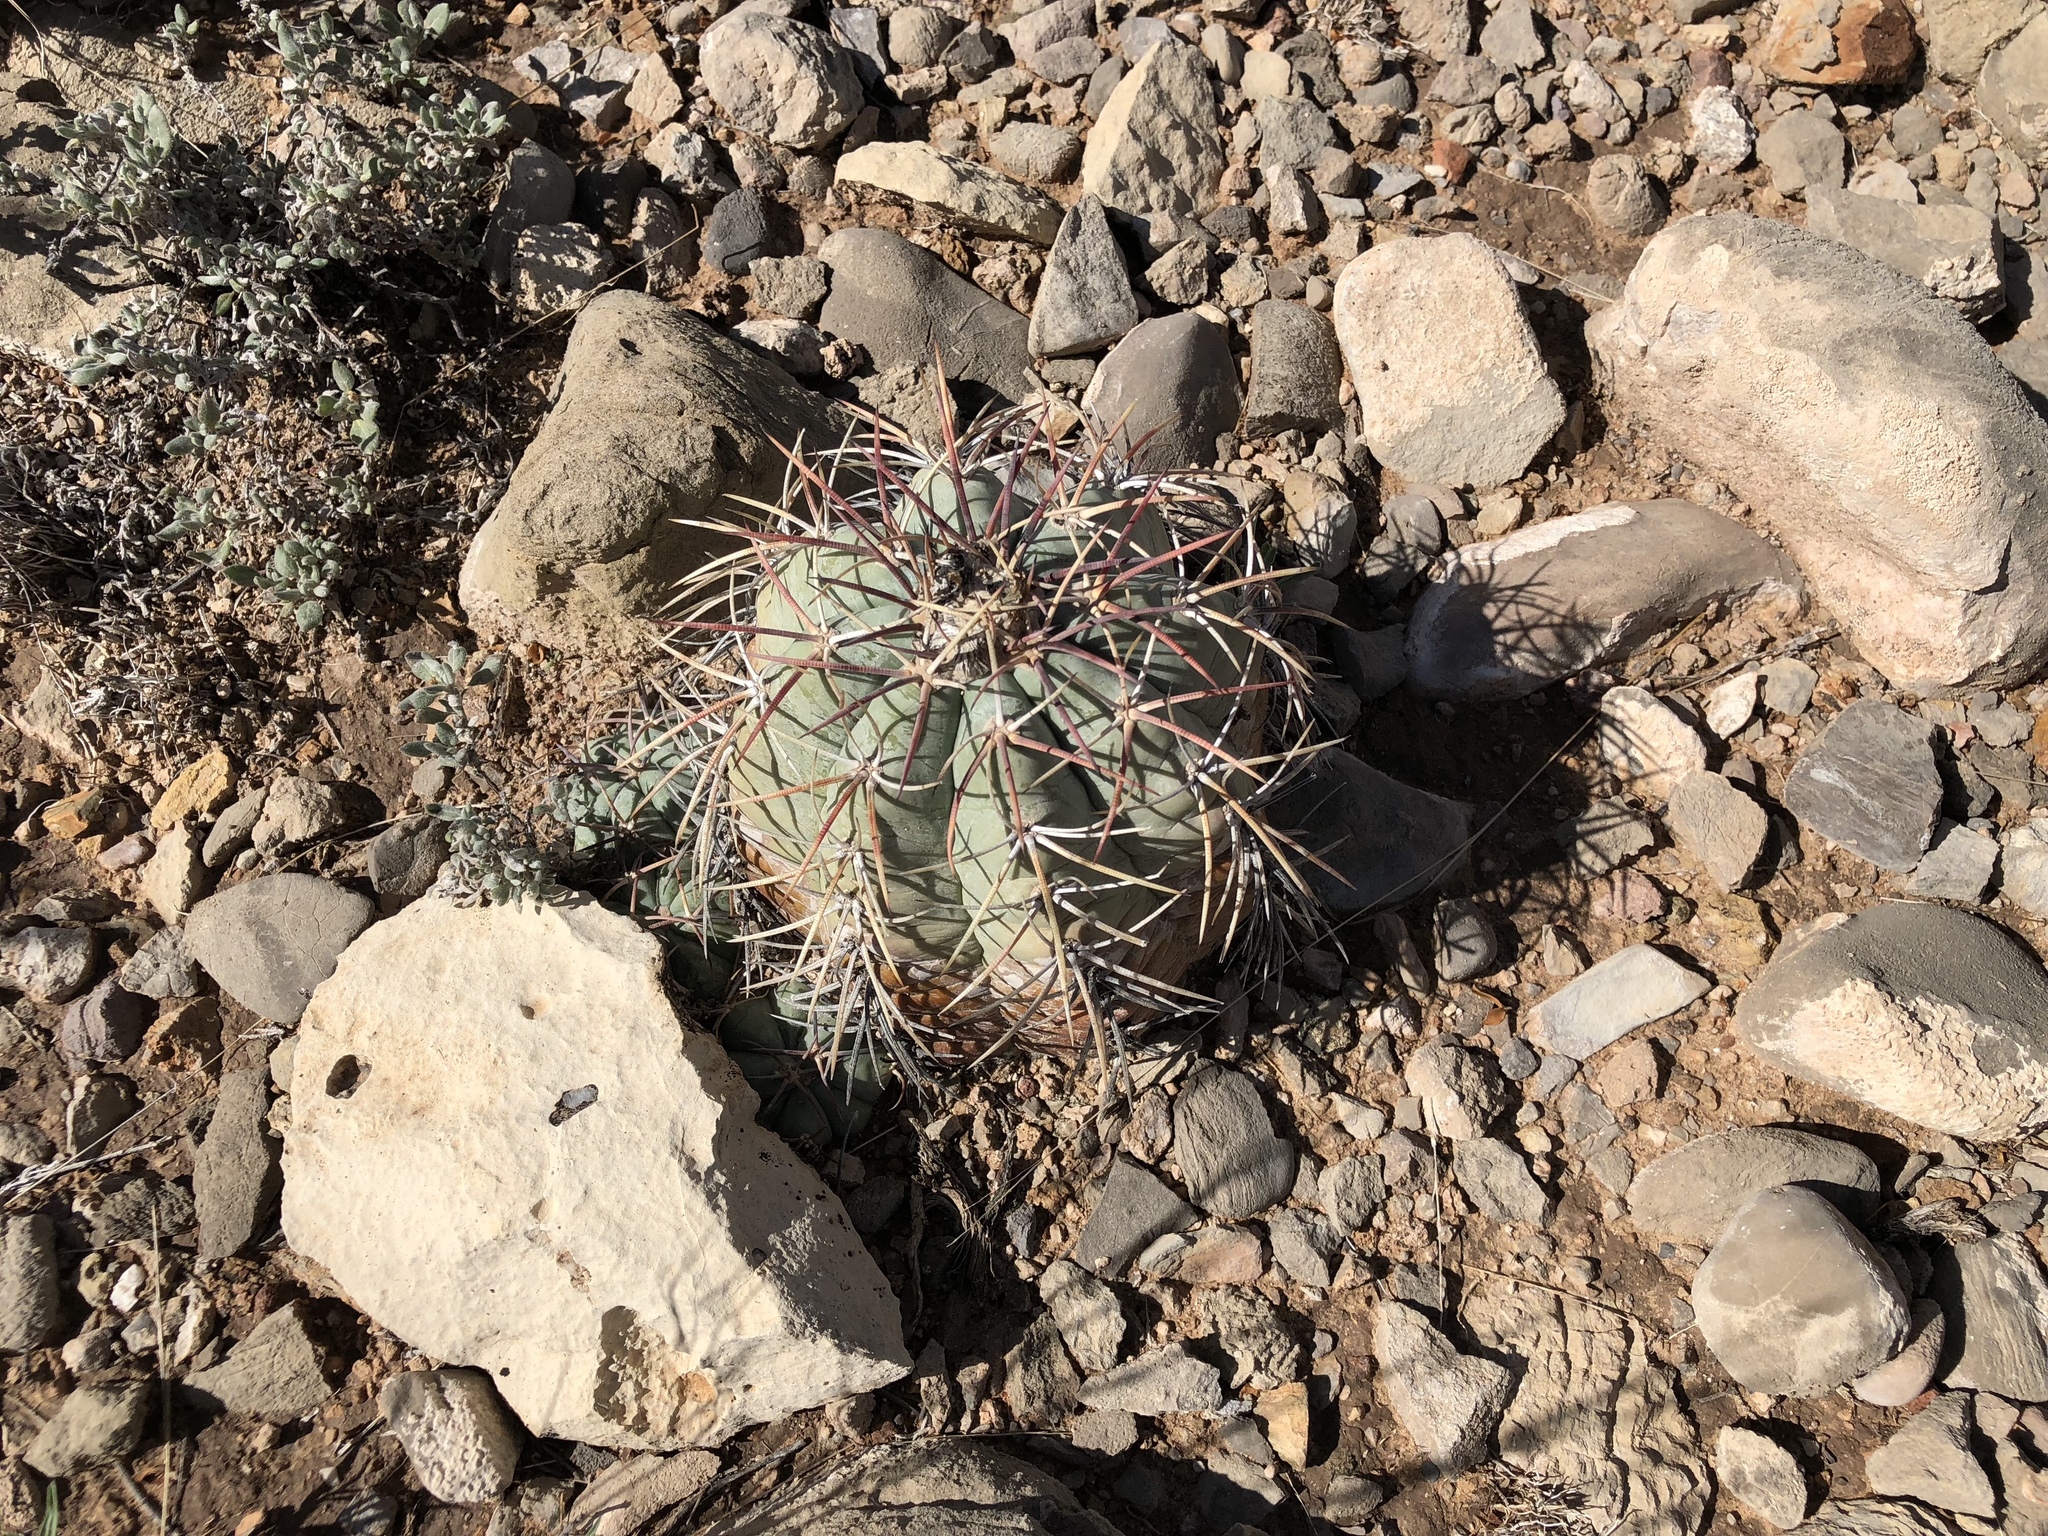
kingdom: Plantae
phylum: Tracheophyta
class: Magnoliopsida
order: Caryophyllales
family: Cactaceae
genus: Echinocactus
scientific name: Echinocactus horizonthalonius
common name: Devilshead
